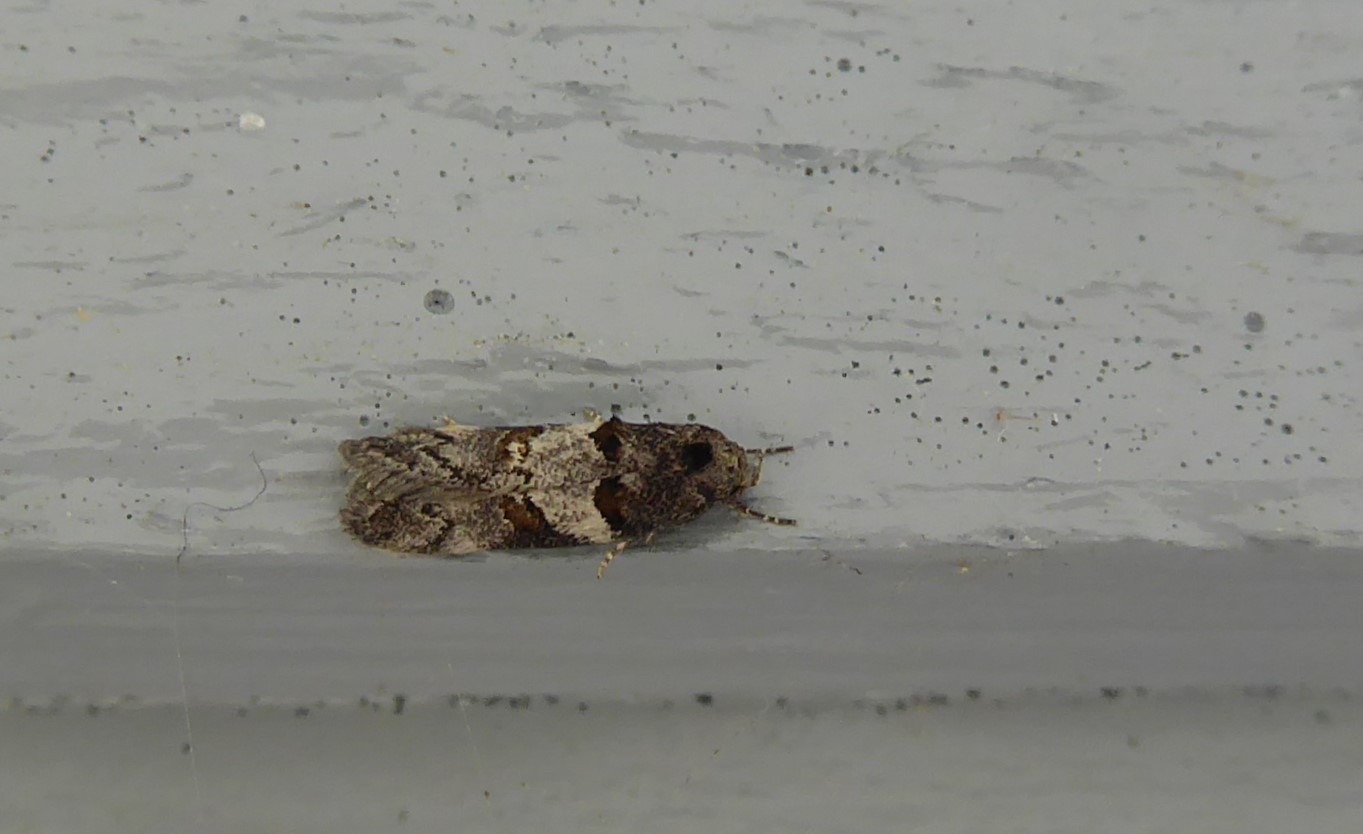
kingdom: Animalia
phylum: Arthropoda
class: Insecta
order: Lepidoptera
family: Oecophoridae
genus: Trachypepla
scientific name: Trachypepla contritella
